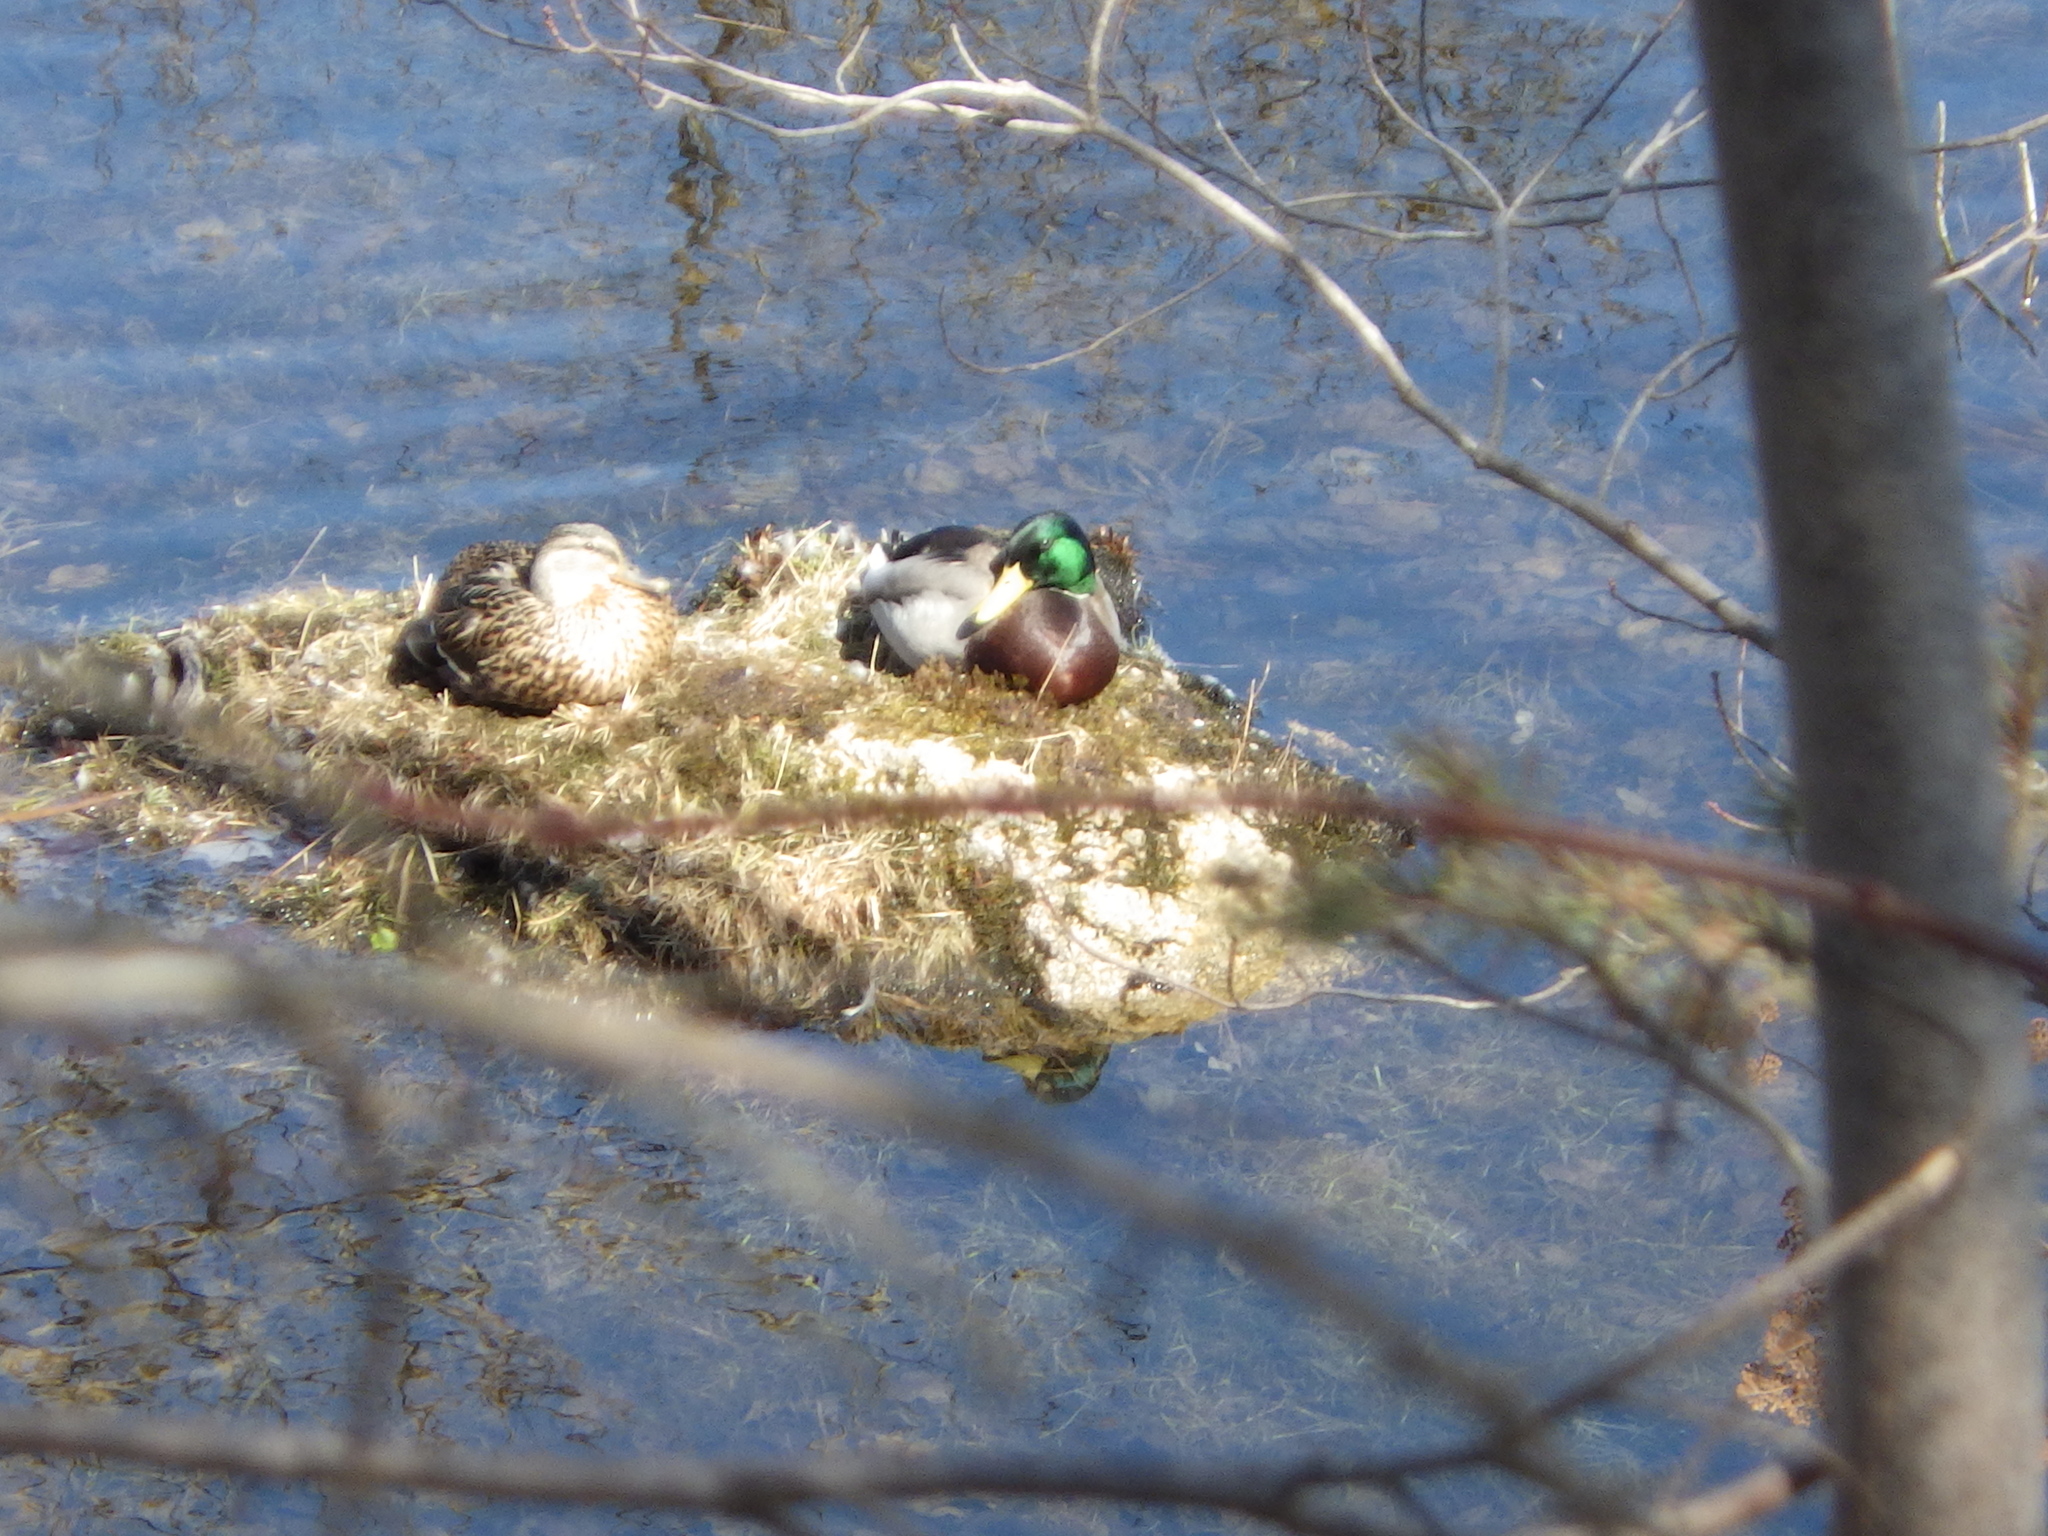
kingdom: Animalia
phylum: Chordata
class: Aves
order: Anseriformes
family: Anatidae
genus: Anas
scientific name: Anas platyrhynchos
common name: Mallard
